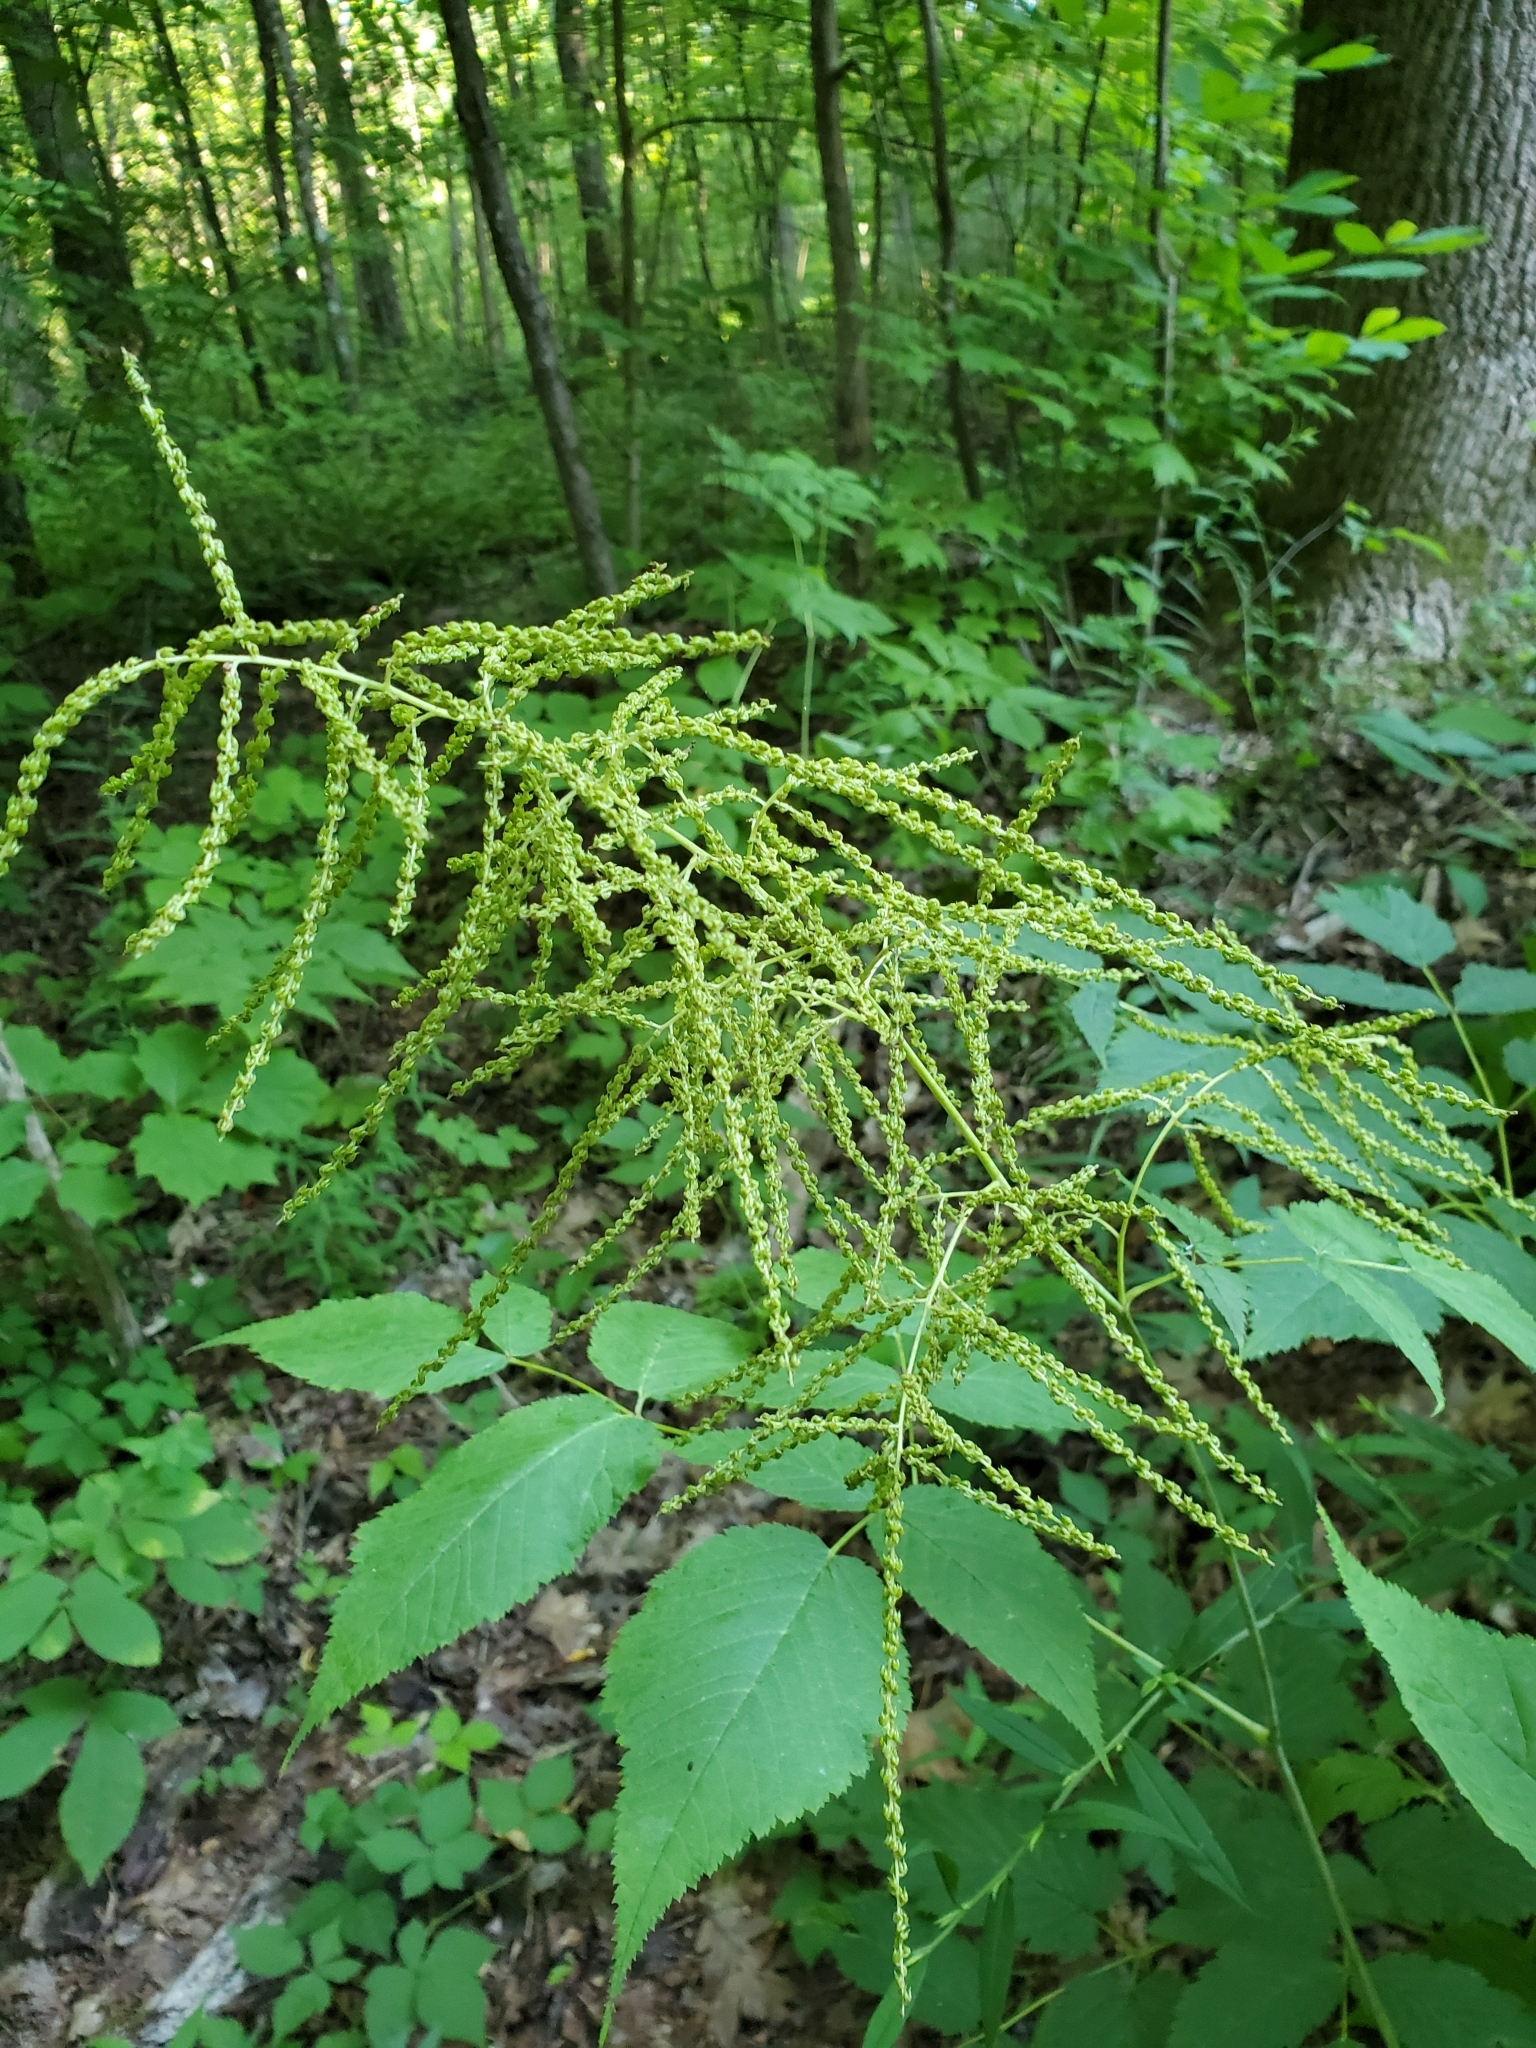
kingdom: Plantae
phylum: Tracheophyta
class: Magnoliopsida
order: Rosales
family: Rosaceae
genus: Aruncus
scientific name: Aruncus dioicus
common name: Buck's-beard
